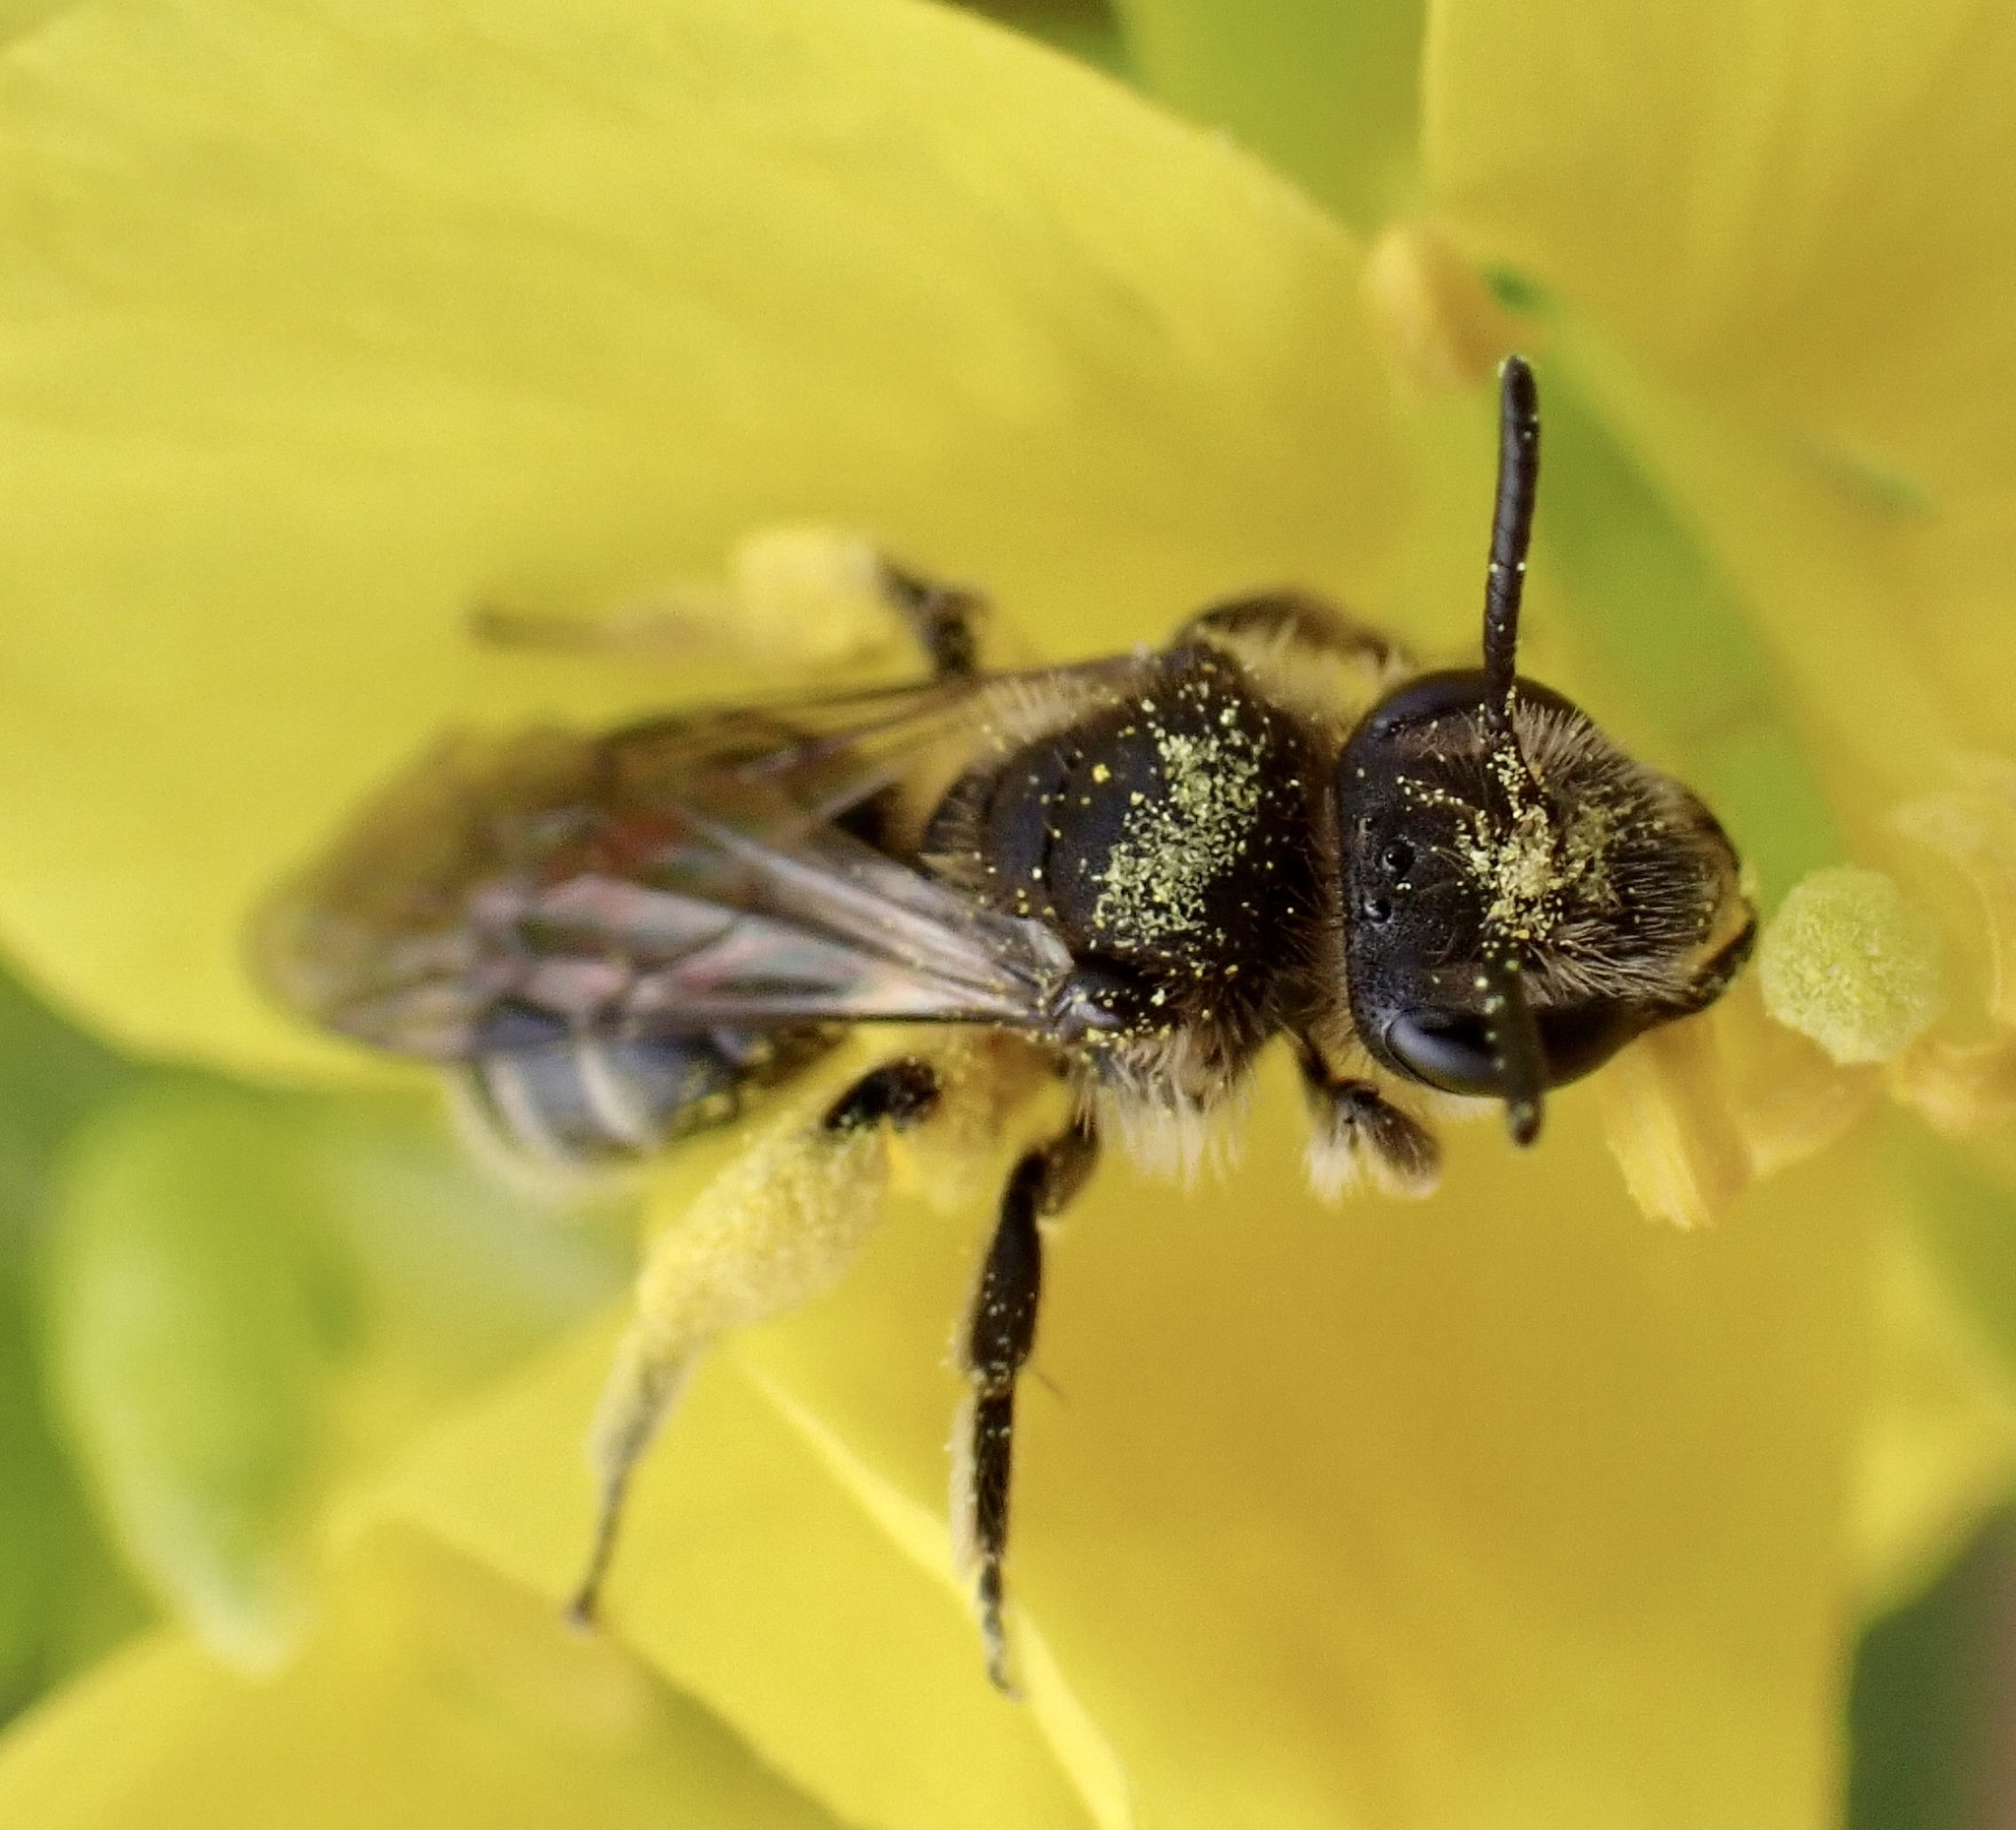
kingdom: Animalia
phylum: Arthropoda
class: Insecta
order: Hymenoptera
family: Andrenidae
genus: Andrena
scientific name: Andrena minutula
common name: Common mini-miner
